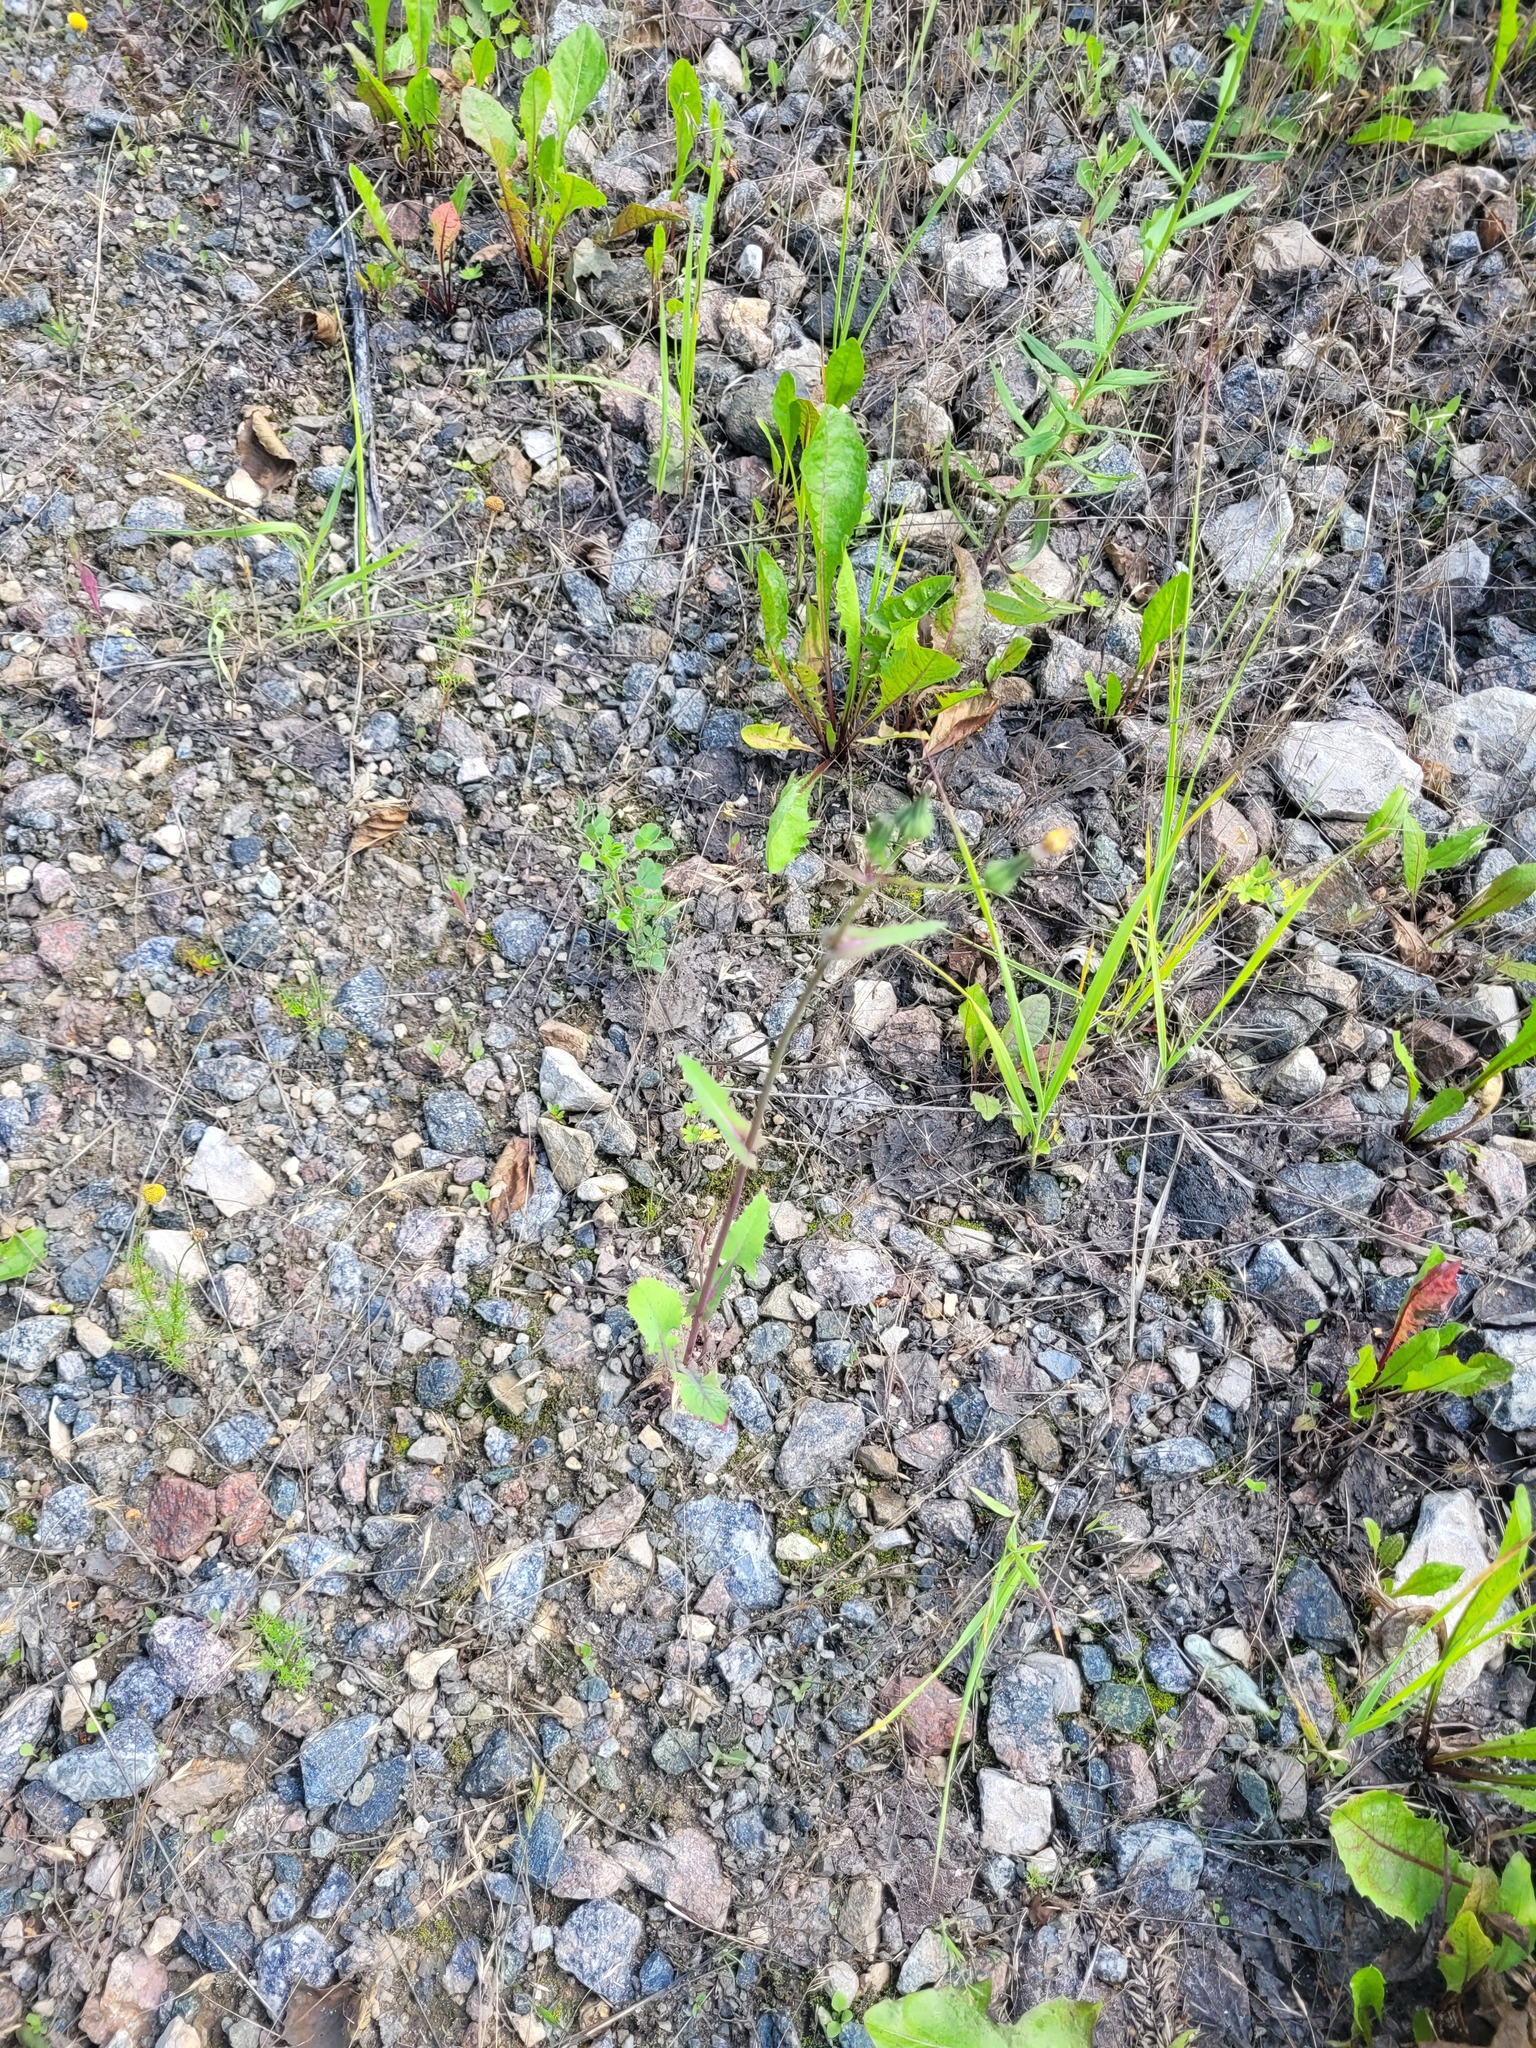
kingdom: Plantae
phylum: Tracheophyta
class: Magnoliopsida
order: Asterales
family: Asteraceae
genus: Sonchus
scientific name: Sonchus oleraceus
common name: Common sowthistle
